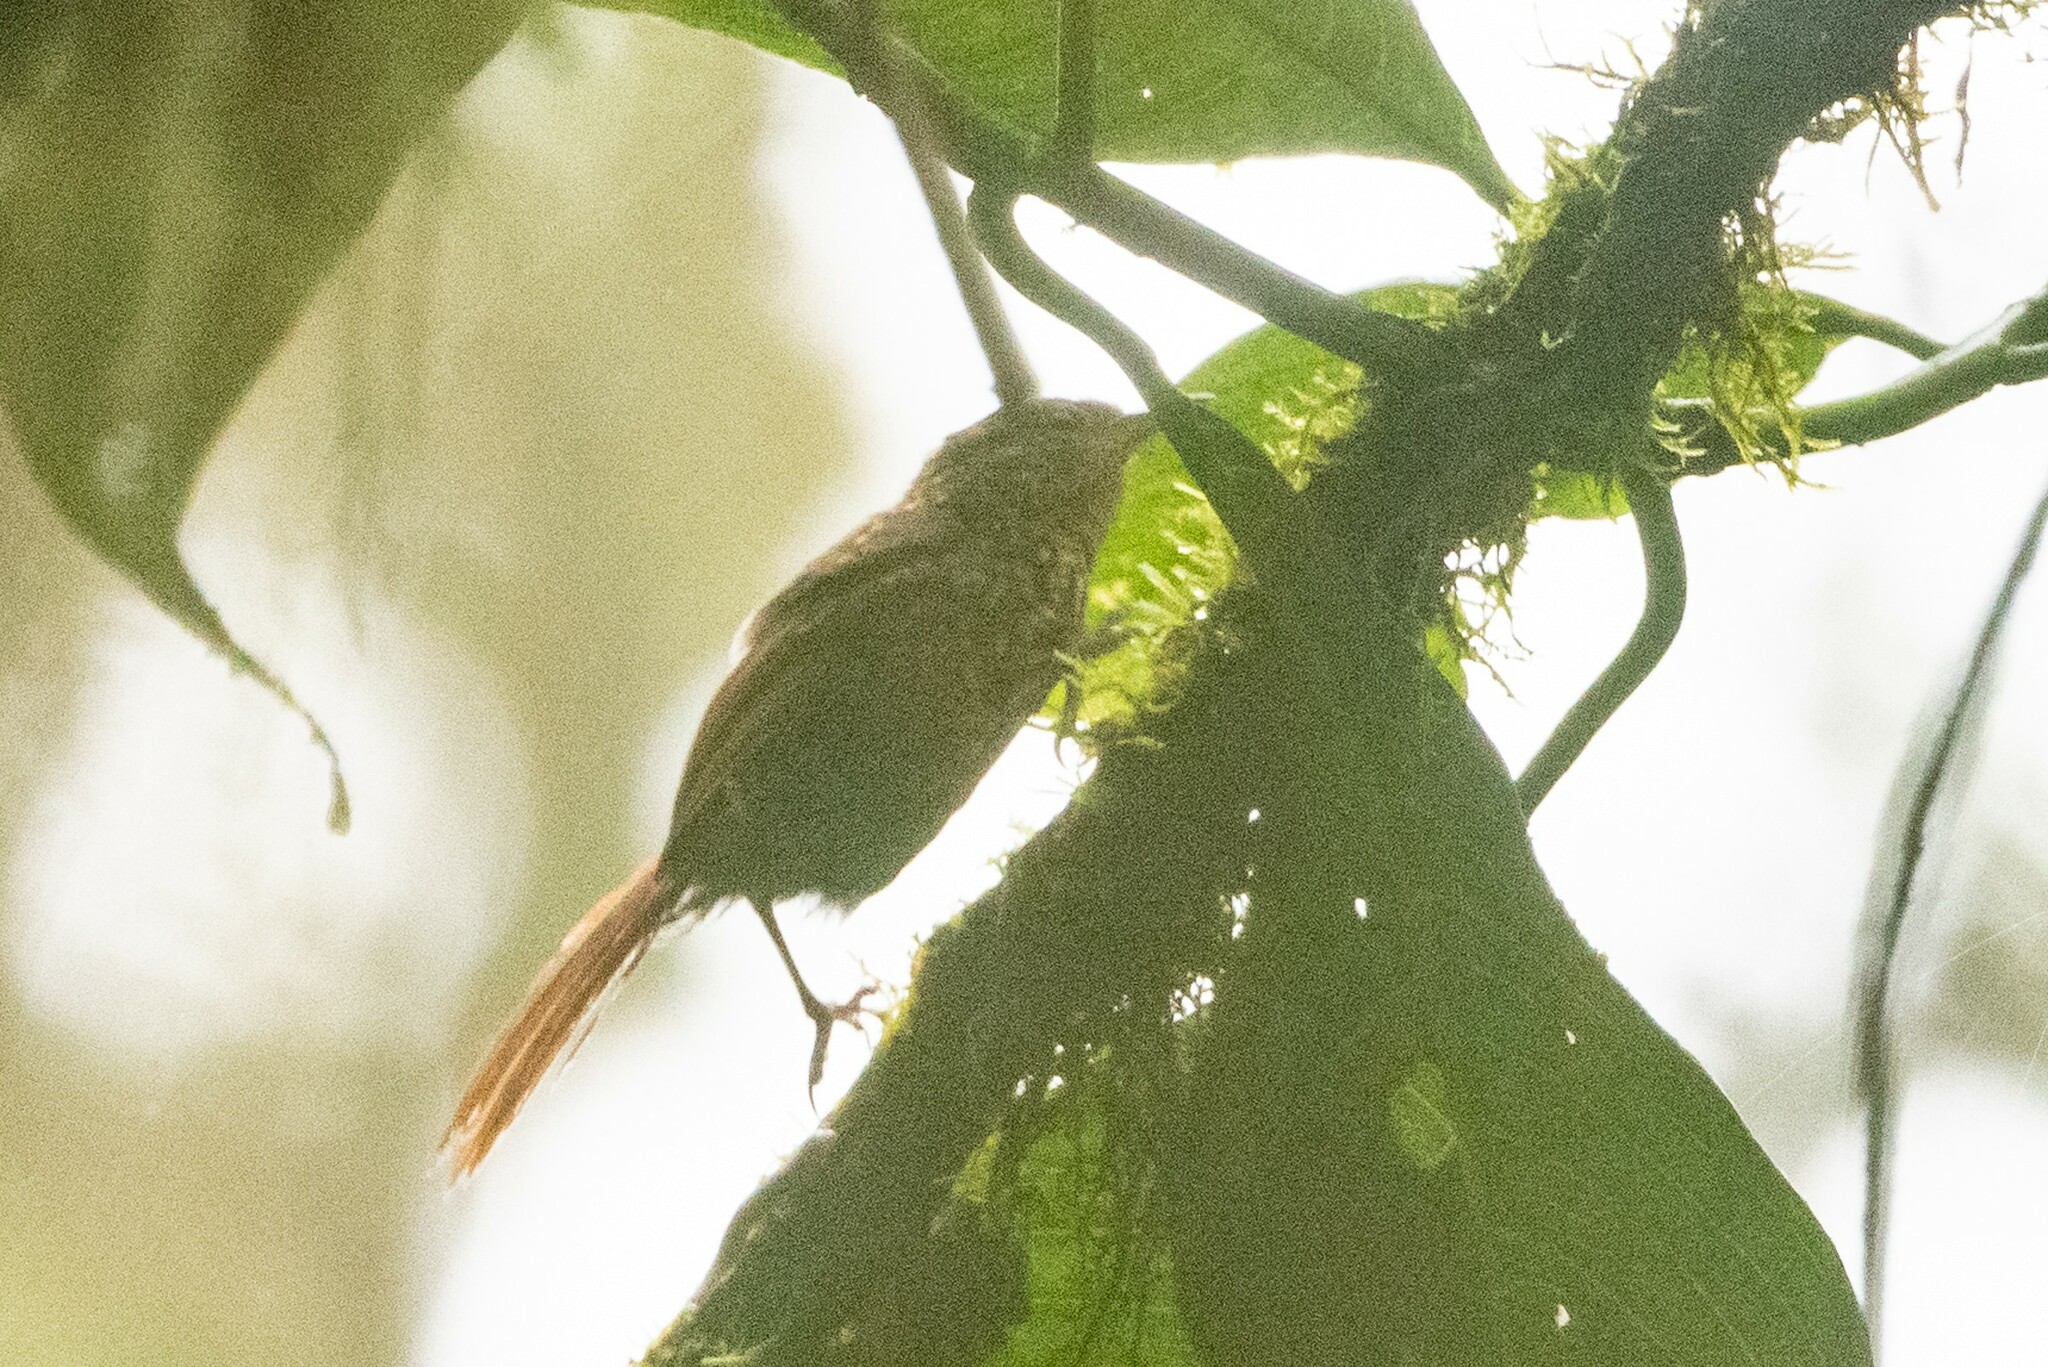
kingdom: Animalia
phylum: Chordata
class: Aves
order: Passeriformes
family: Furnariidae
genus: Premnornis
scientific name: Premnornis guttuliger
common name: Rusty-winged barbtail
